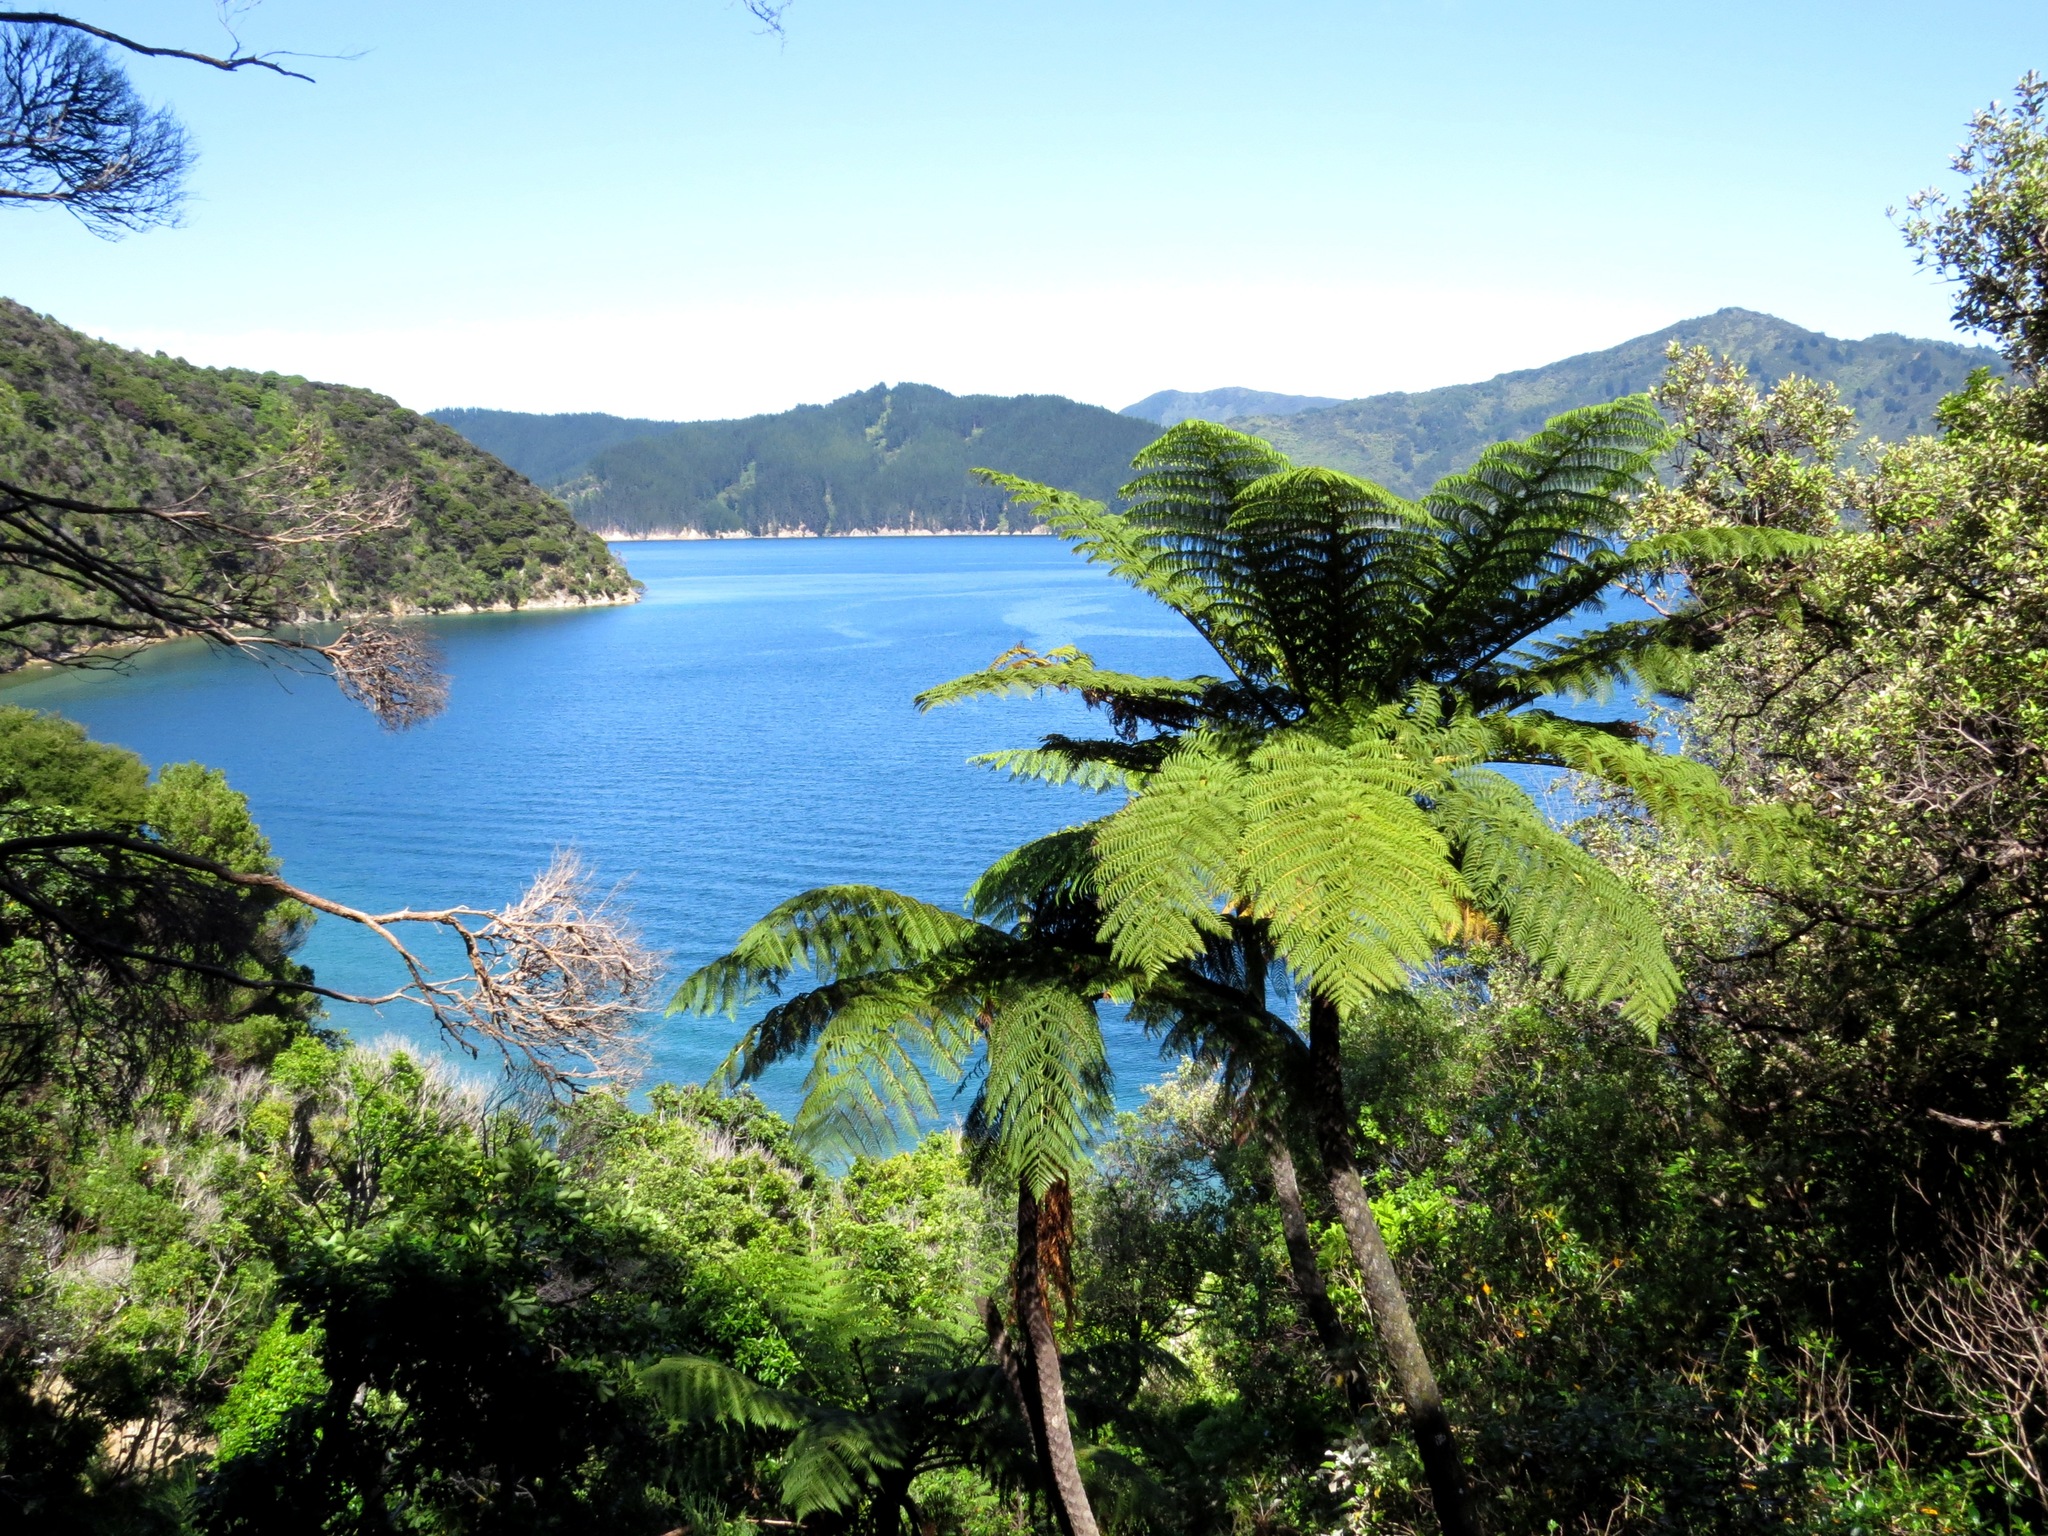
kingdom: Plantae
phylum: Tracheophyta
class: Polypodiopsida
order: Cyatheales
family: Cyatheaceae
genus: Sphaeropteris
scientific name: Sphaeropteris medullaris
